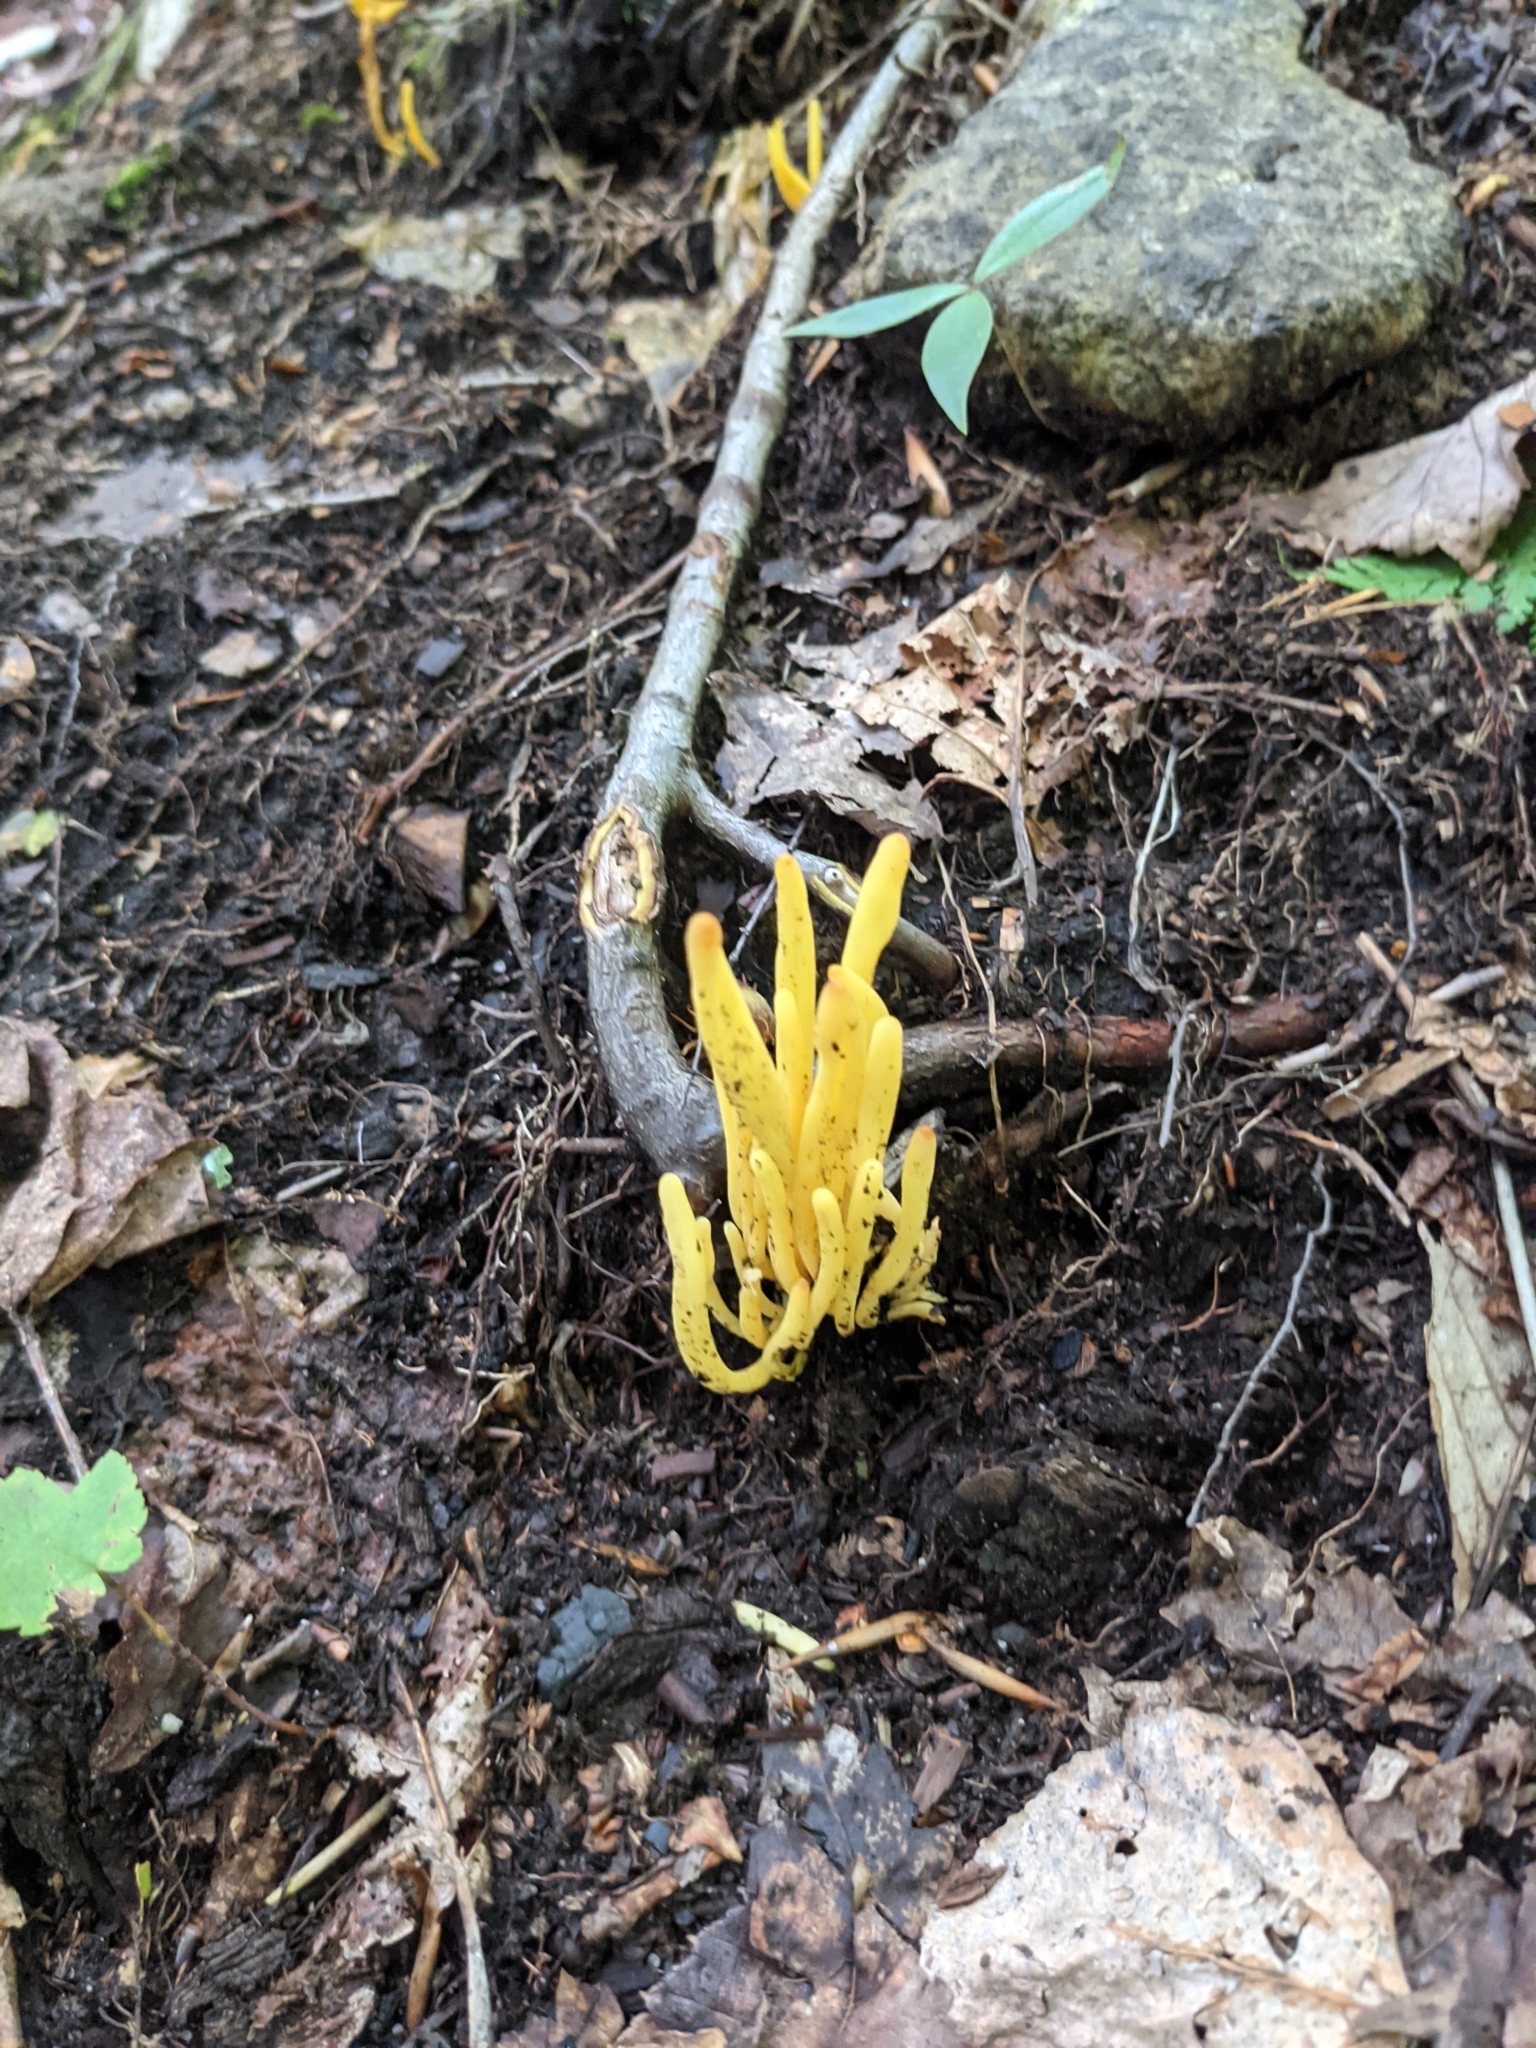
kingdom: Fungi
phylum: Basidiomycota
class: Agaricomycetes
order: Agaricales
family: Clavariaceae
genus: Clavulinopsis
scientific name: Clavulinopsis fusiformis
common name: Golden spindles
